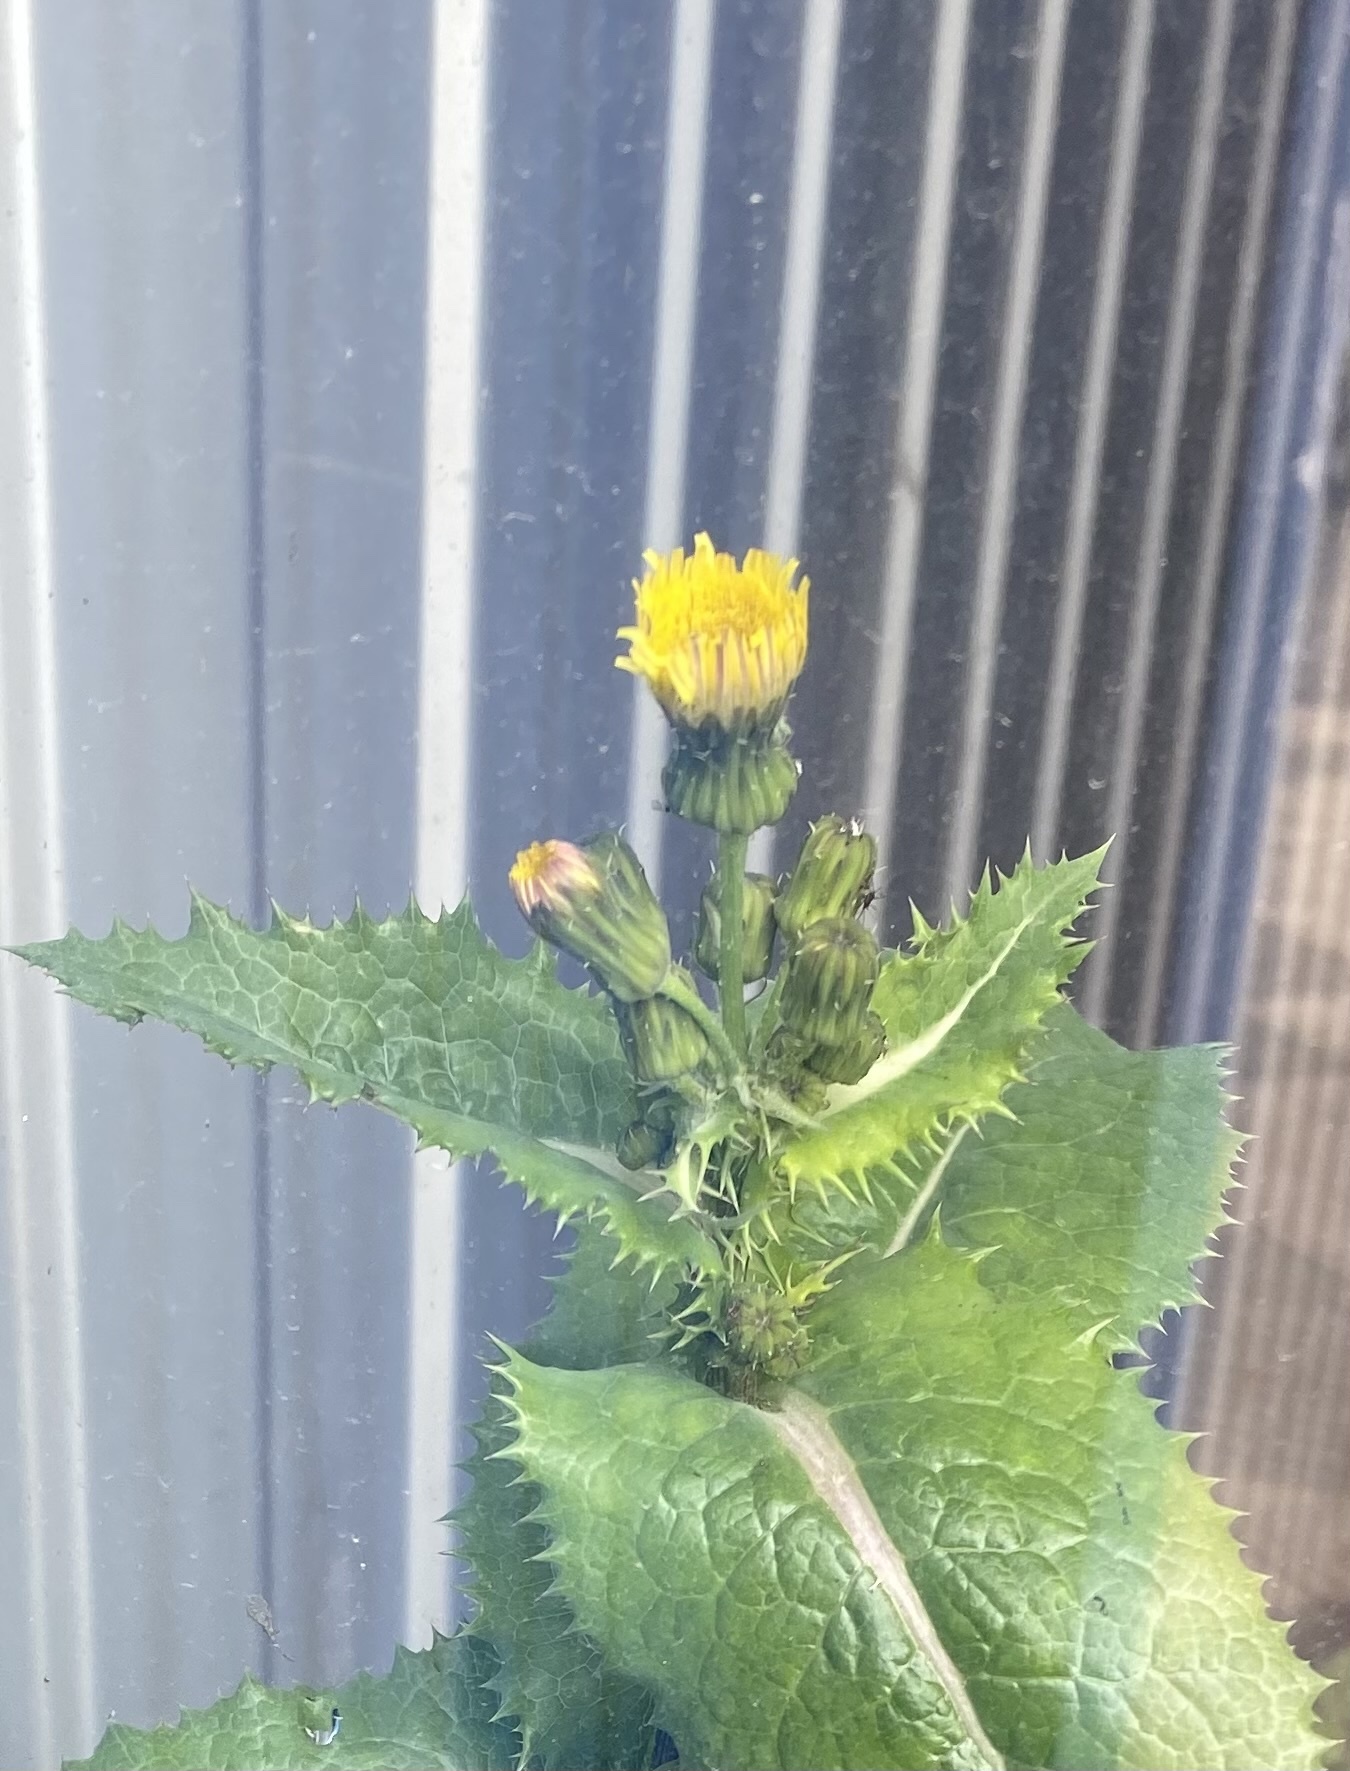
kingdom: Plantae
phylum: Tracheophyta
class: Magnoliopsida
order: Asterales
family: Asteraceae
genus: Sonchus
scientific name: Sonchus asper
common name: Prickly sow-thistle
